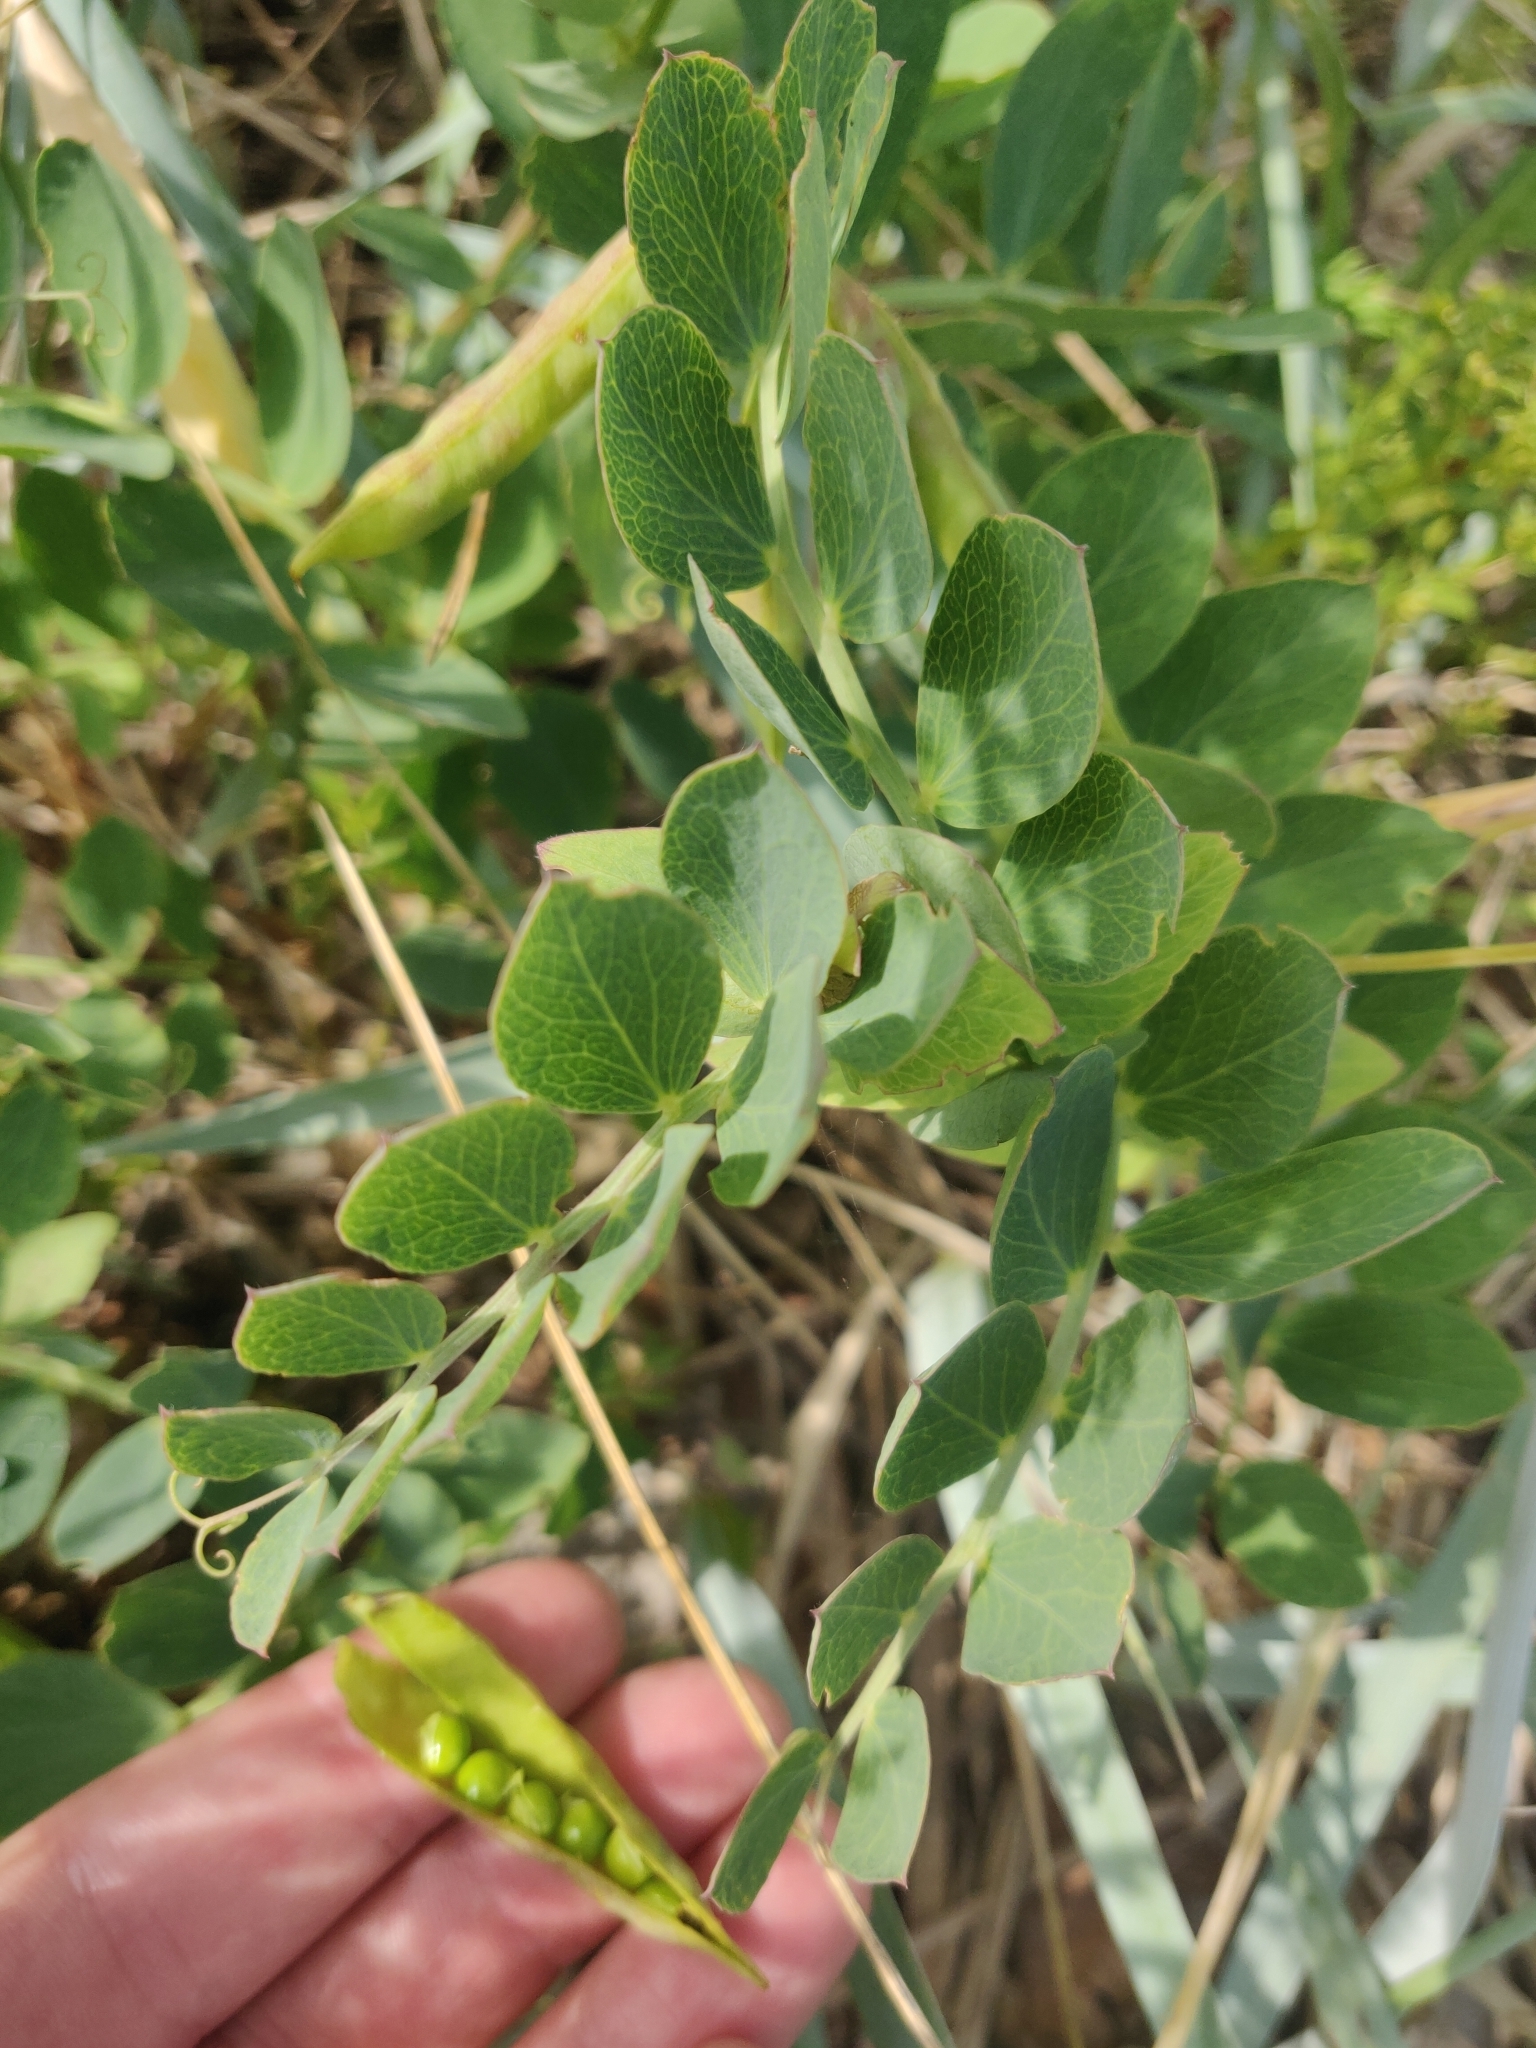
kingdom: Plantae
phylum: Tracheophyta
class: Magnoliopsida
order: Fabales
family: Fabaceae
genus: Lathyrus
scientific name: Lathyrus japonicus
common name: Sea pea
